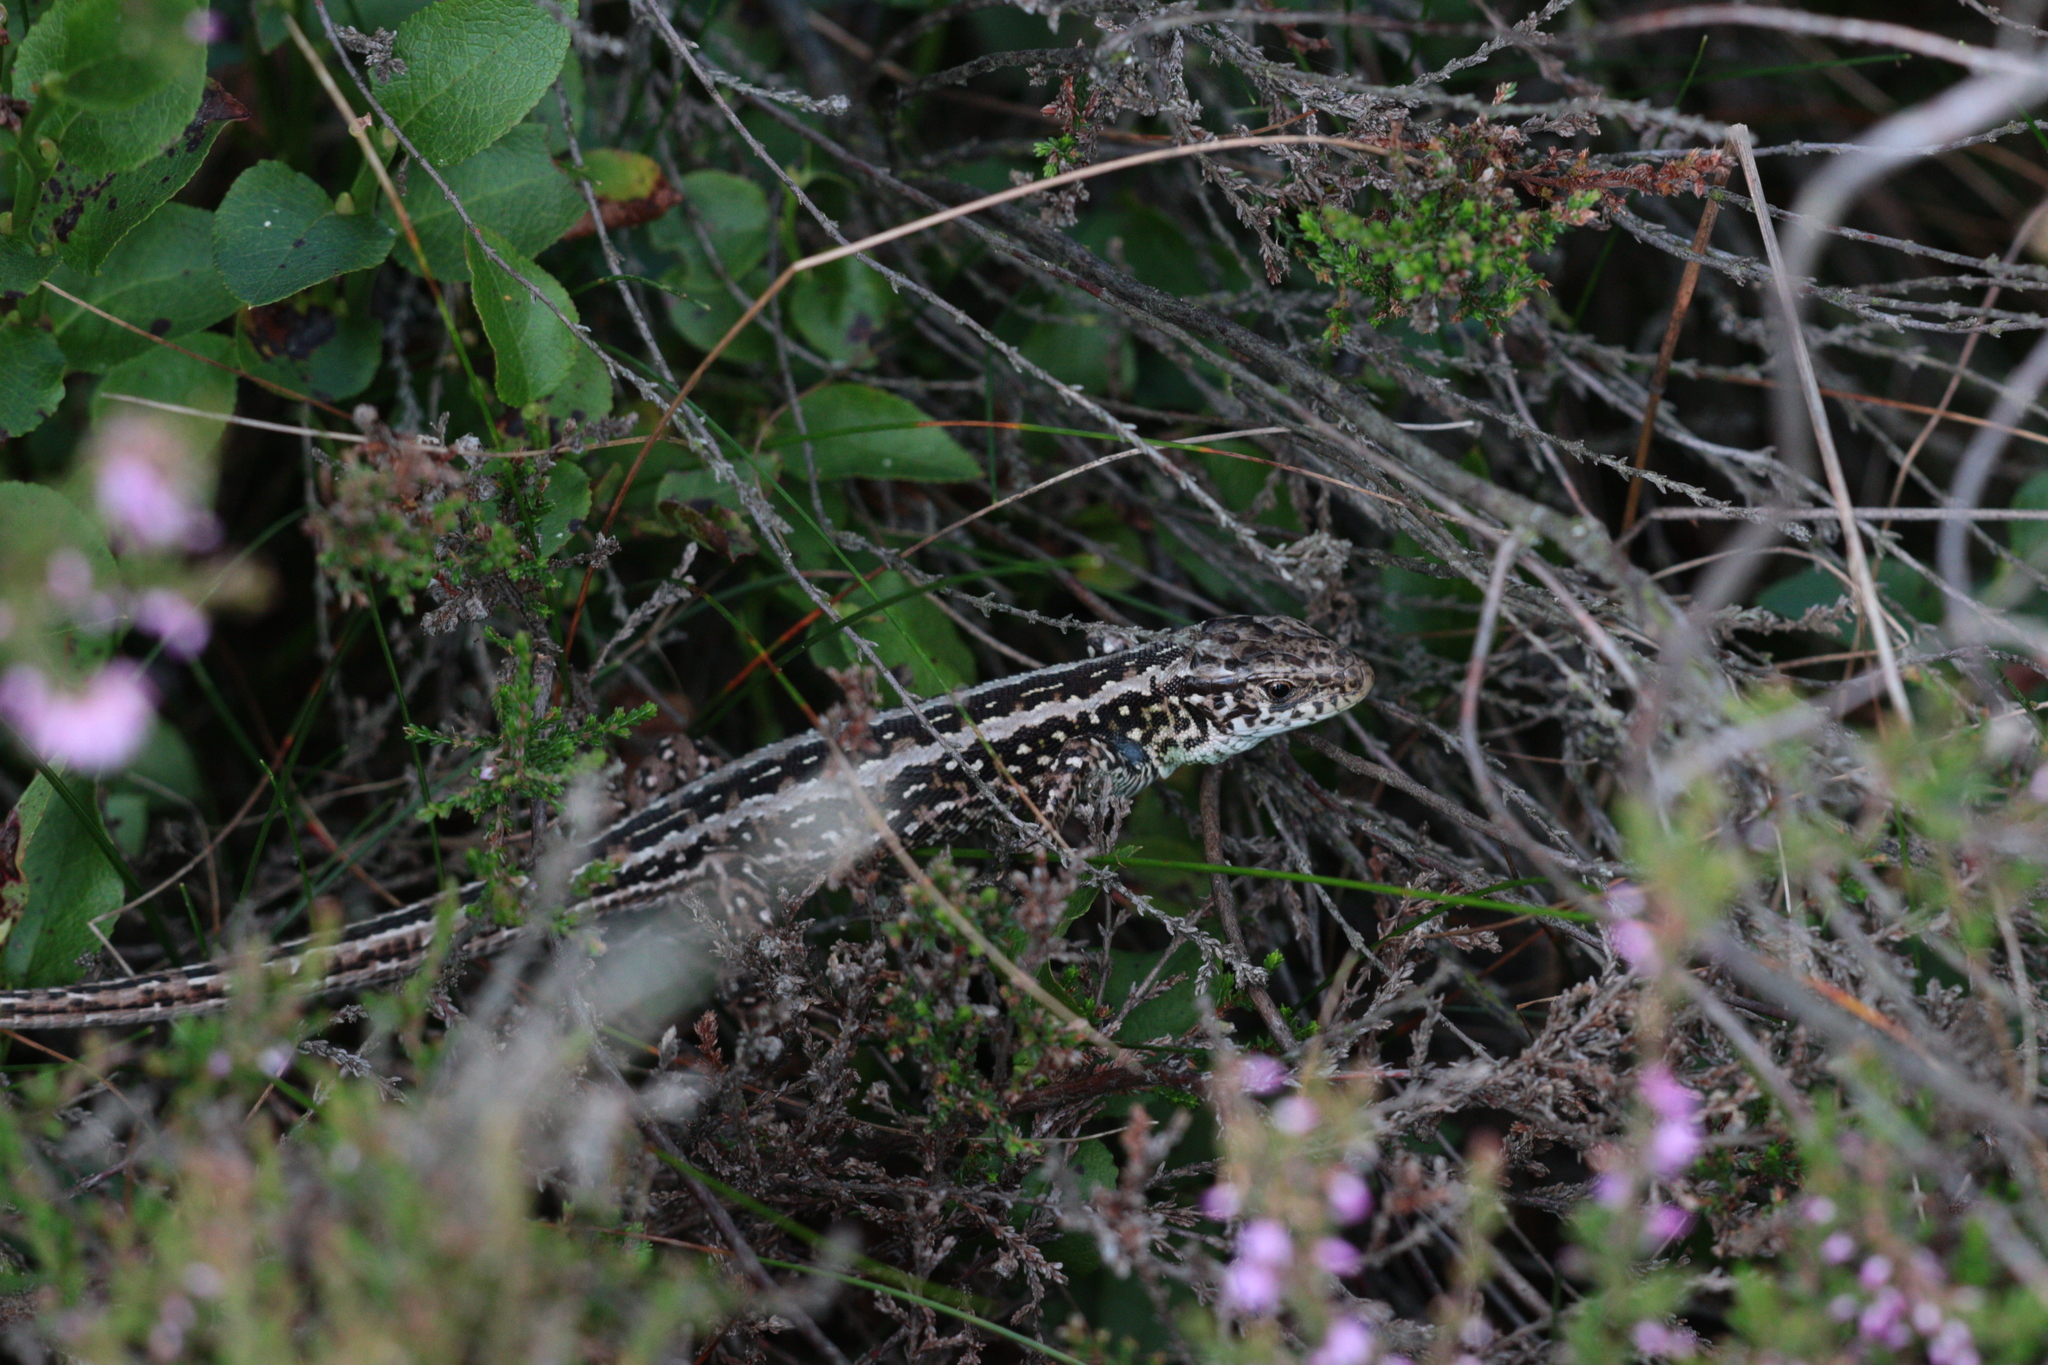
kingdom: Animalia
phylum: Chordata
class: Squamata
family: Lacertidae
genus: Lacerta
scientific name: Lacerta agilis
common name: Sand lizard
